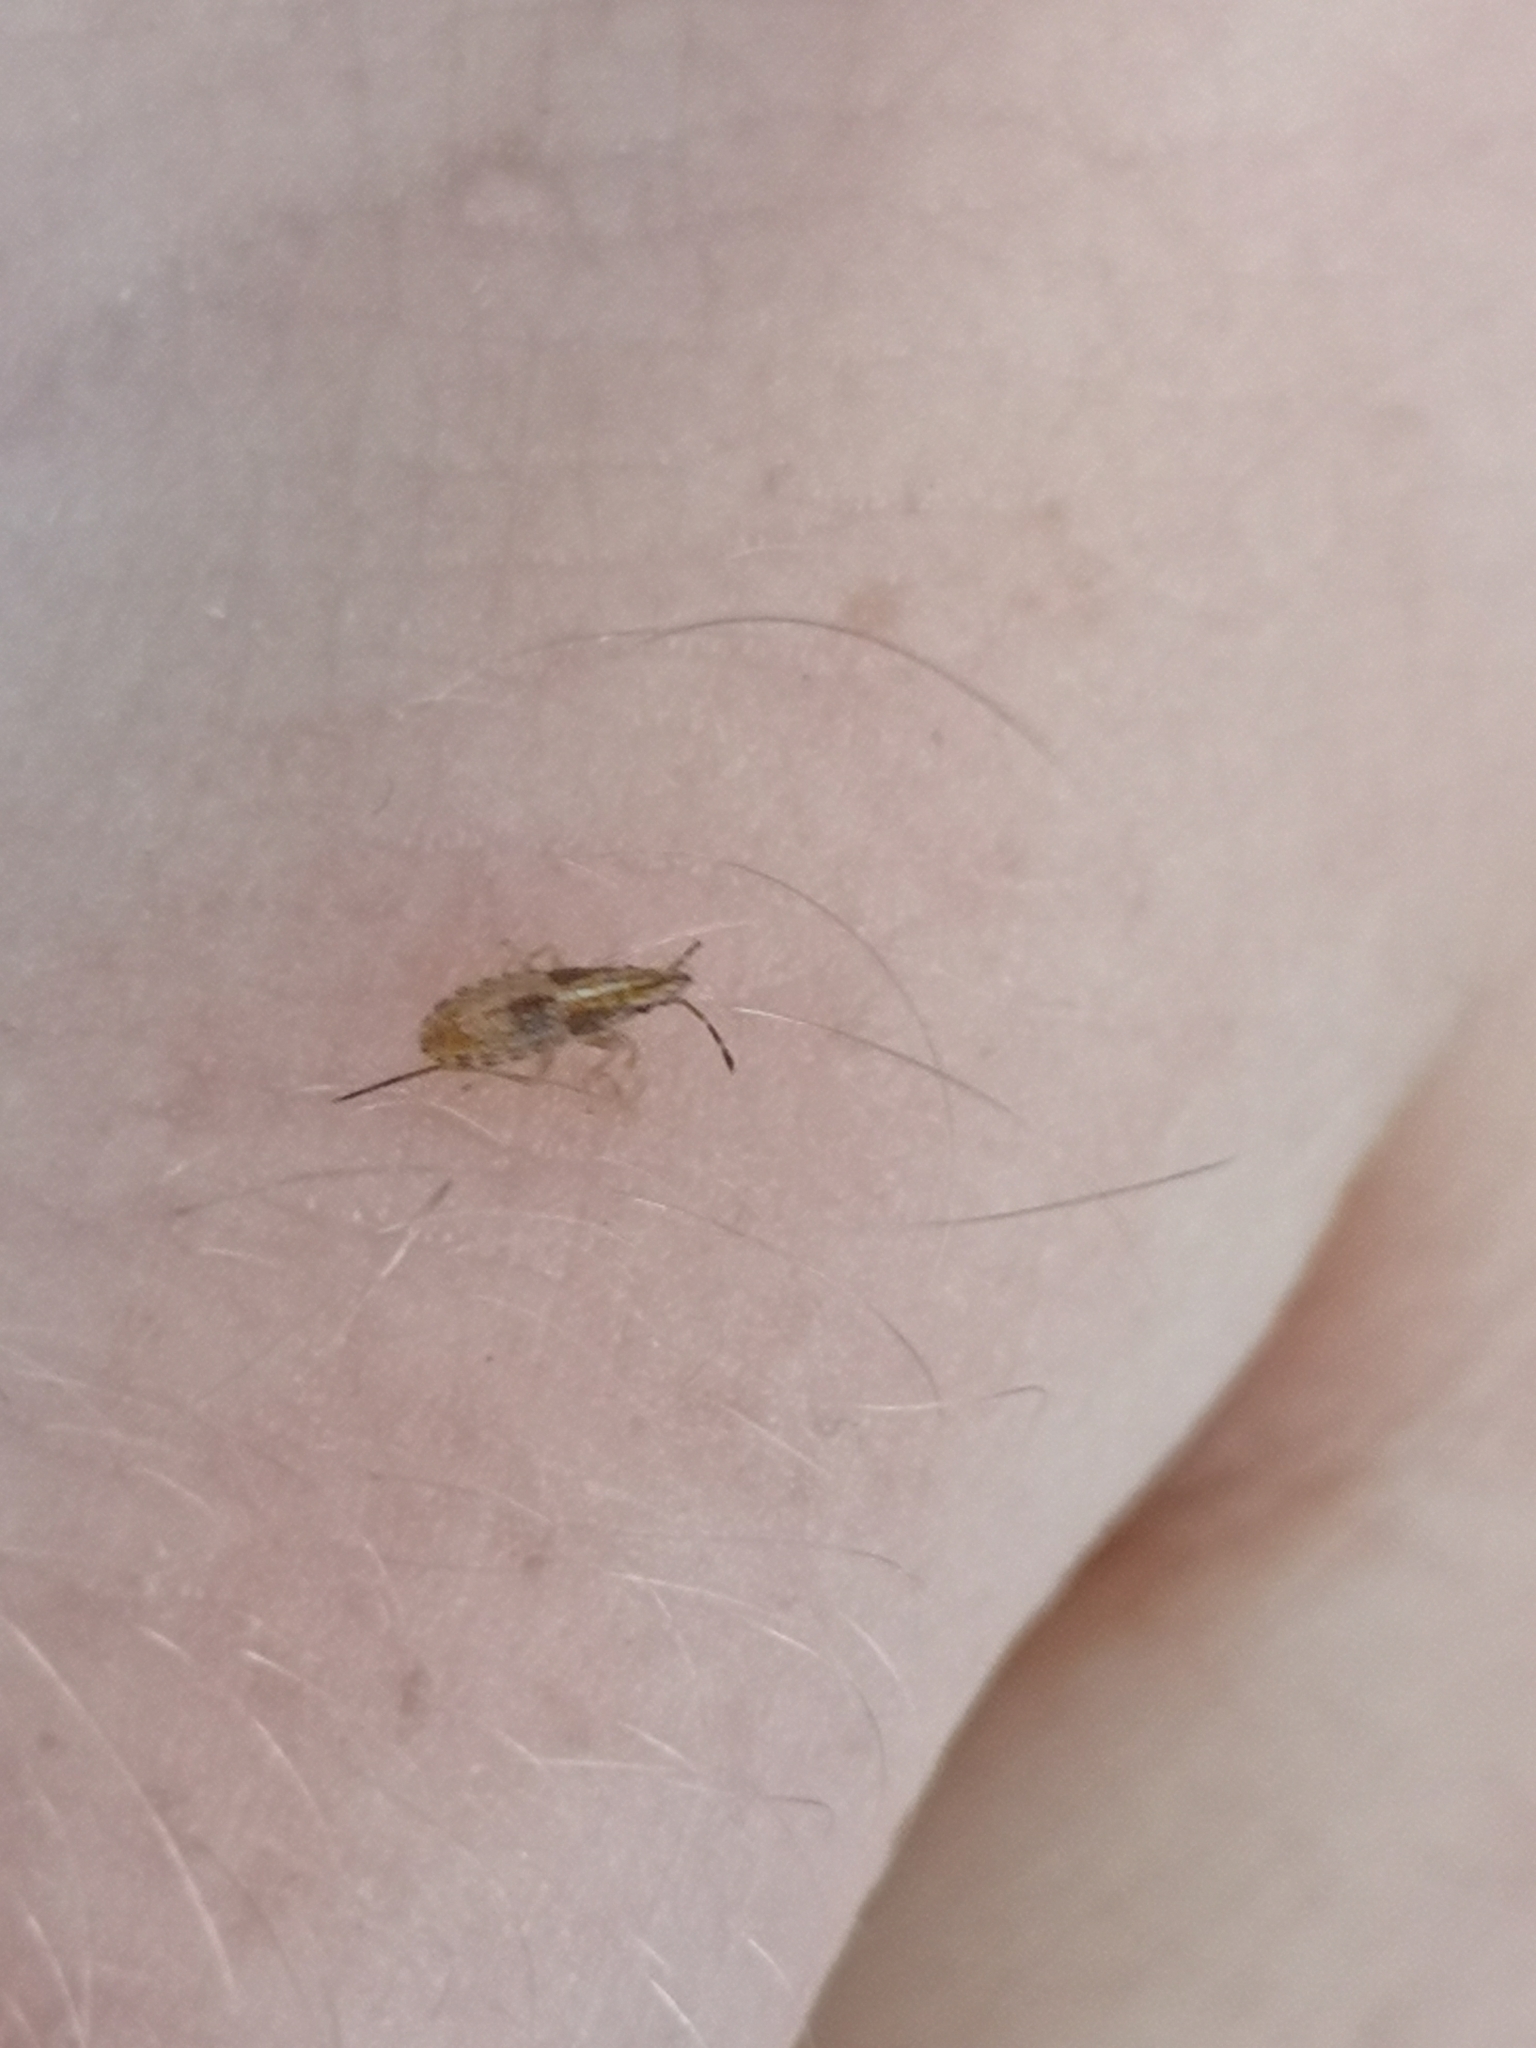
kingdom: Animalia
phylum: Arthropoda
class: Insecta
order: Hemiptera
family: Lygaeidae
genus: Belonochilus
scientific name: Belonochilus numenius
